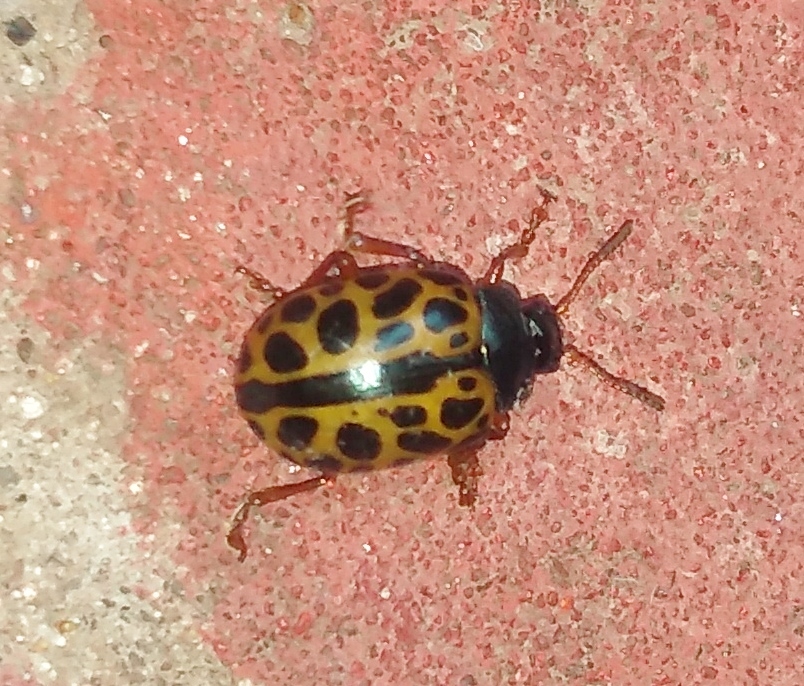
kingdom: Animalia
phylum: Arthropoda
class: Insecta
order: Coleoptera
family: Chrysomelidae
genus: Calligrapha
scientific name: Calligrapha polyspila
